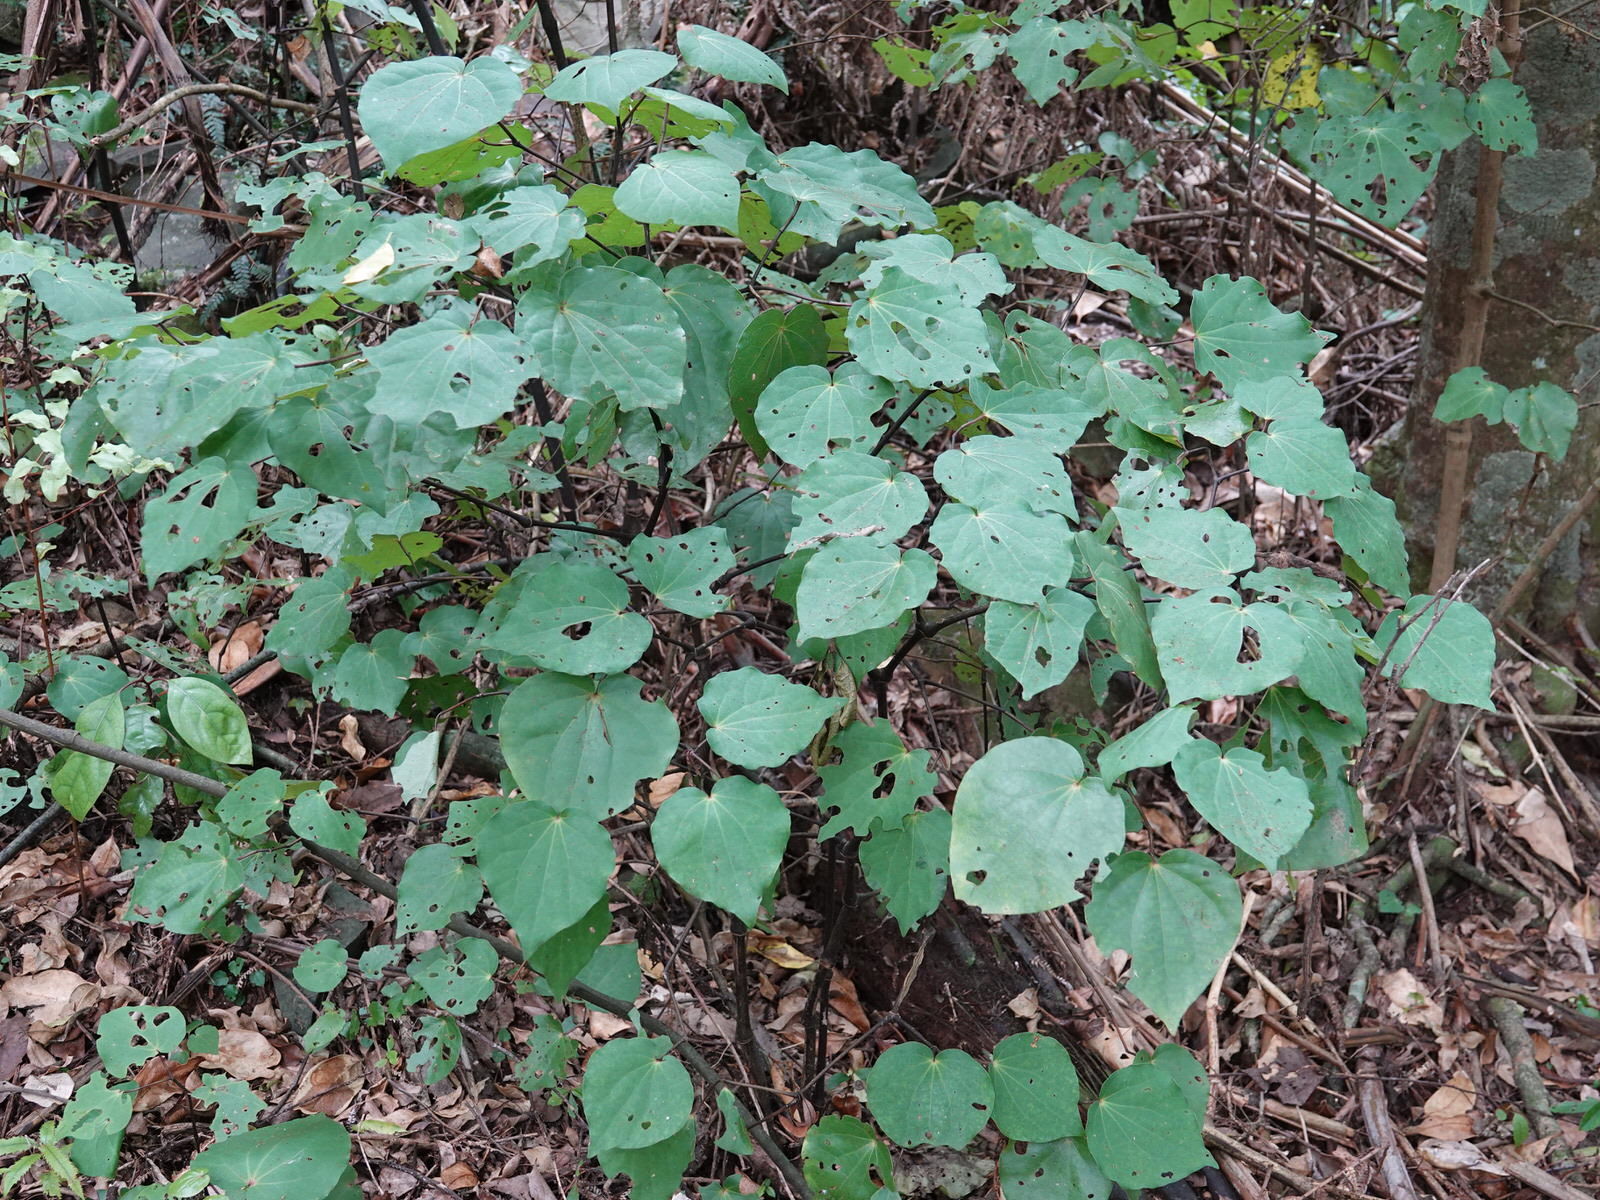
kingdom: Plantae
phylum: Tracheophyta
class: Magnoliopsida
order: Piperales
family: Piperaceae
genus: Macropiper
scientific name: Macropiper excelsum
